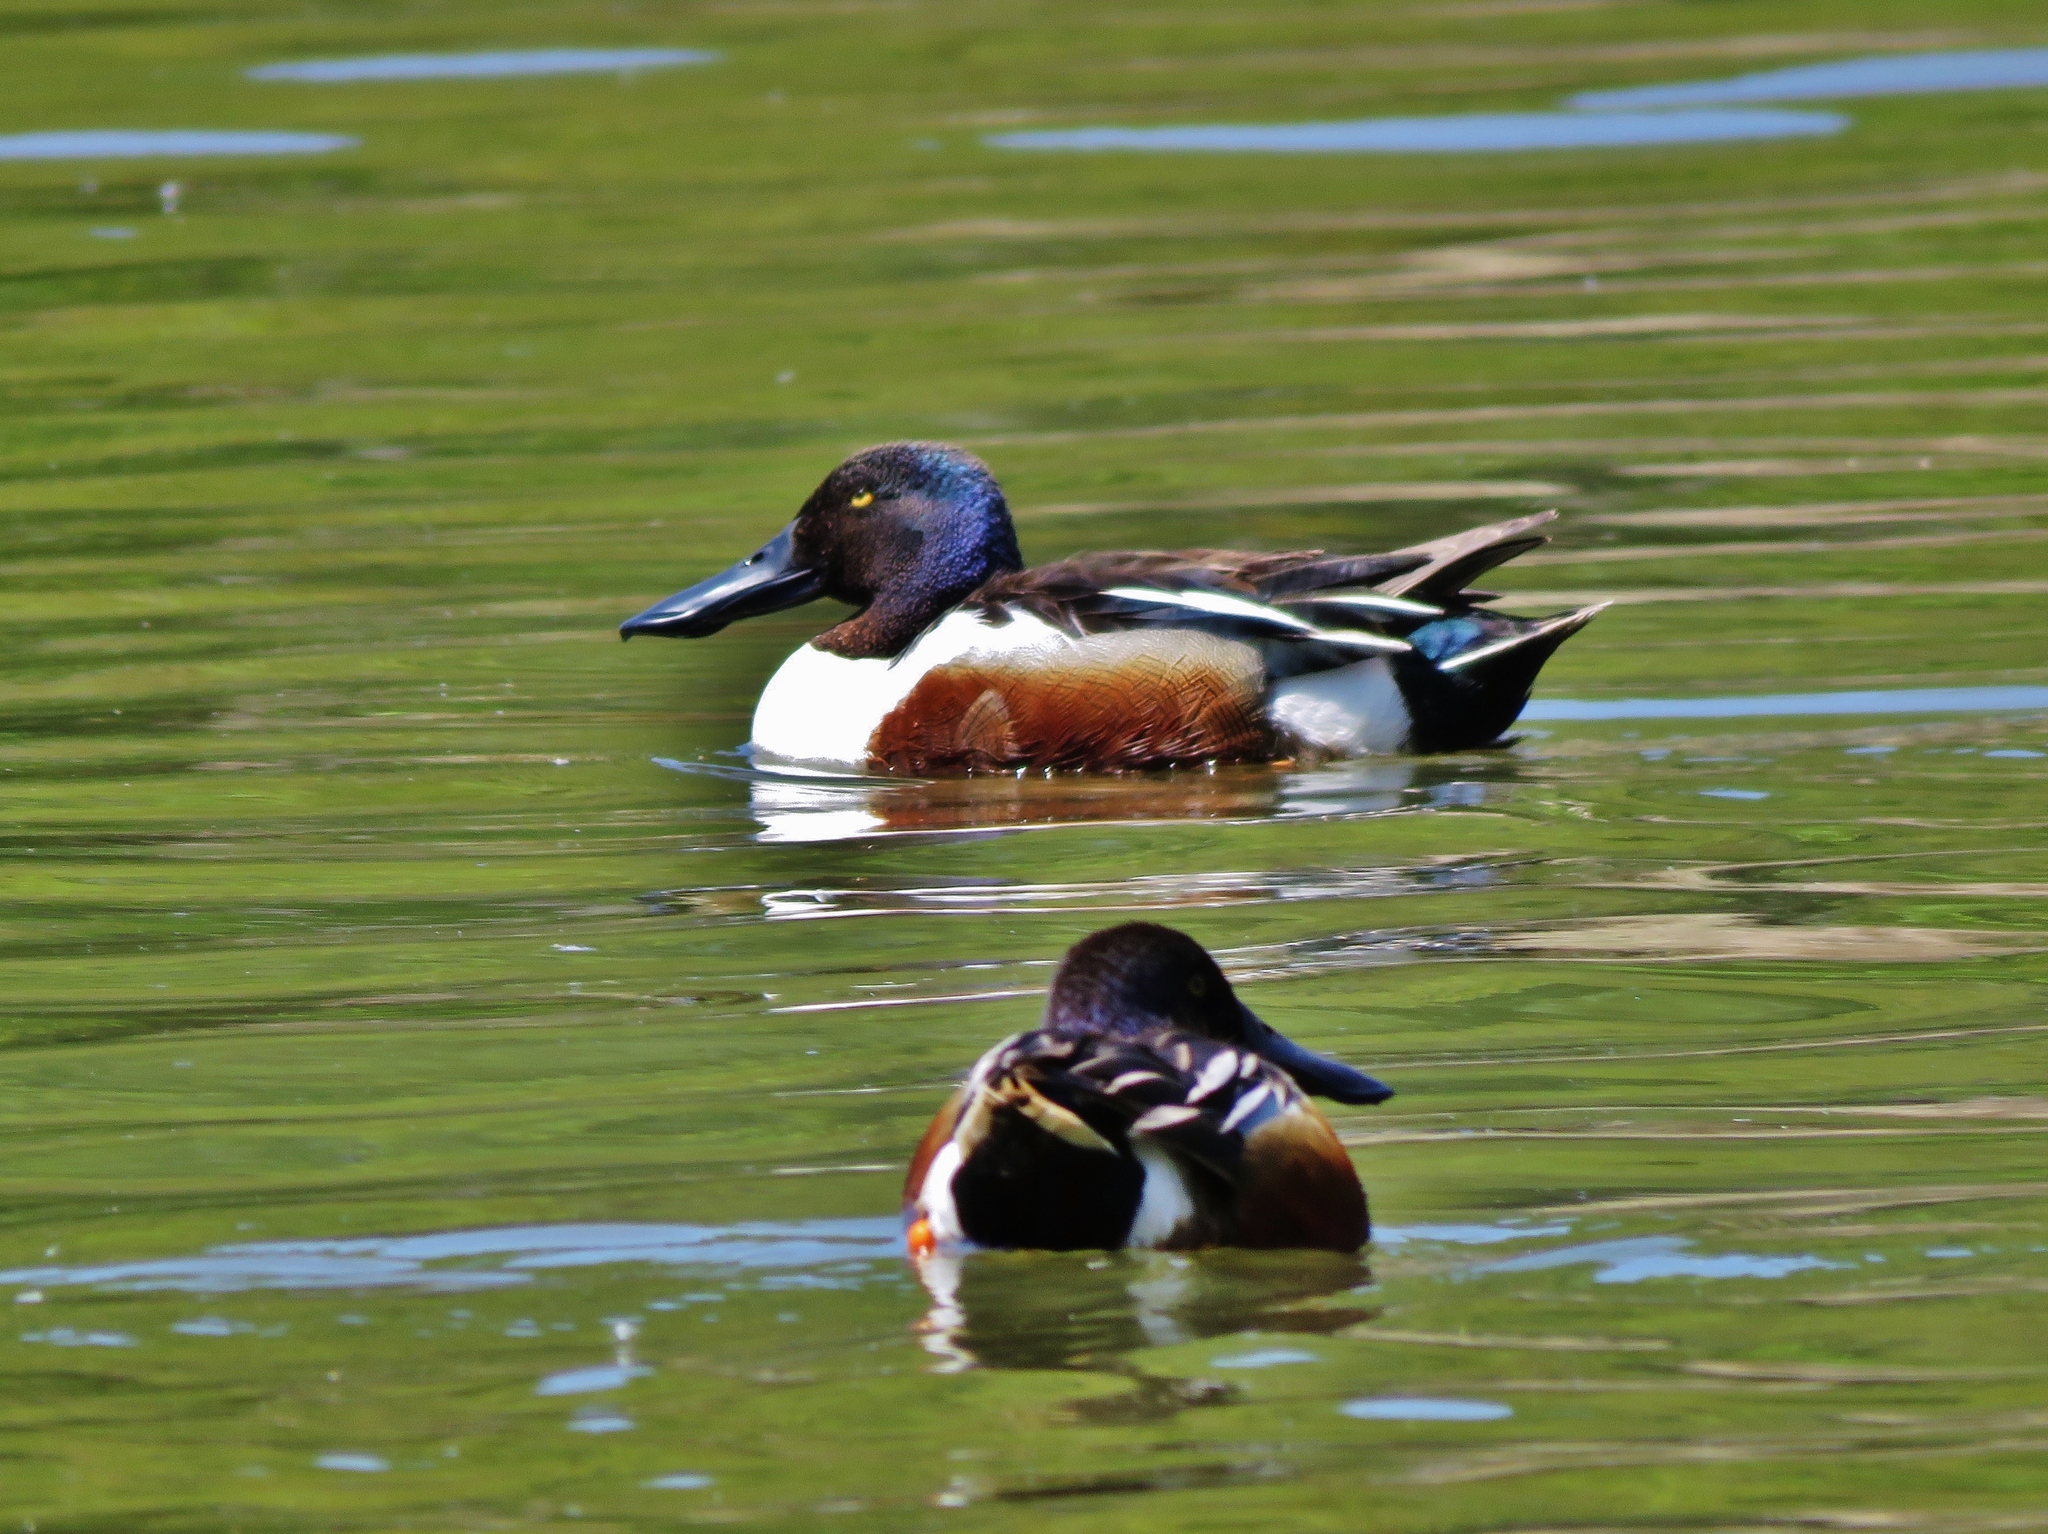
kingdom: Animalia
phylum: Chordata
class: Aves
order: Anseriformes
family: Anatidae
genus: Spatula
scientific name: Spatula clypeata
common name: Northern shoveler
